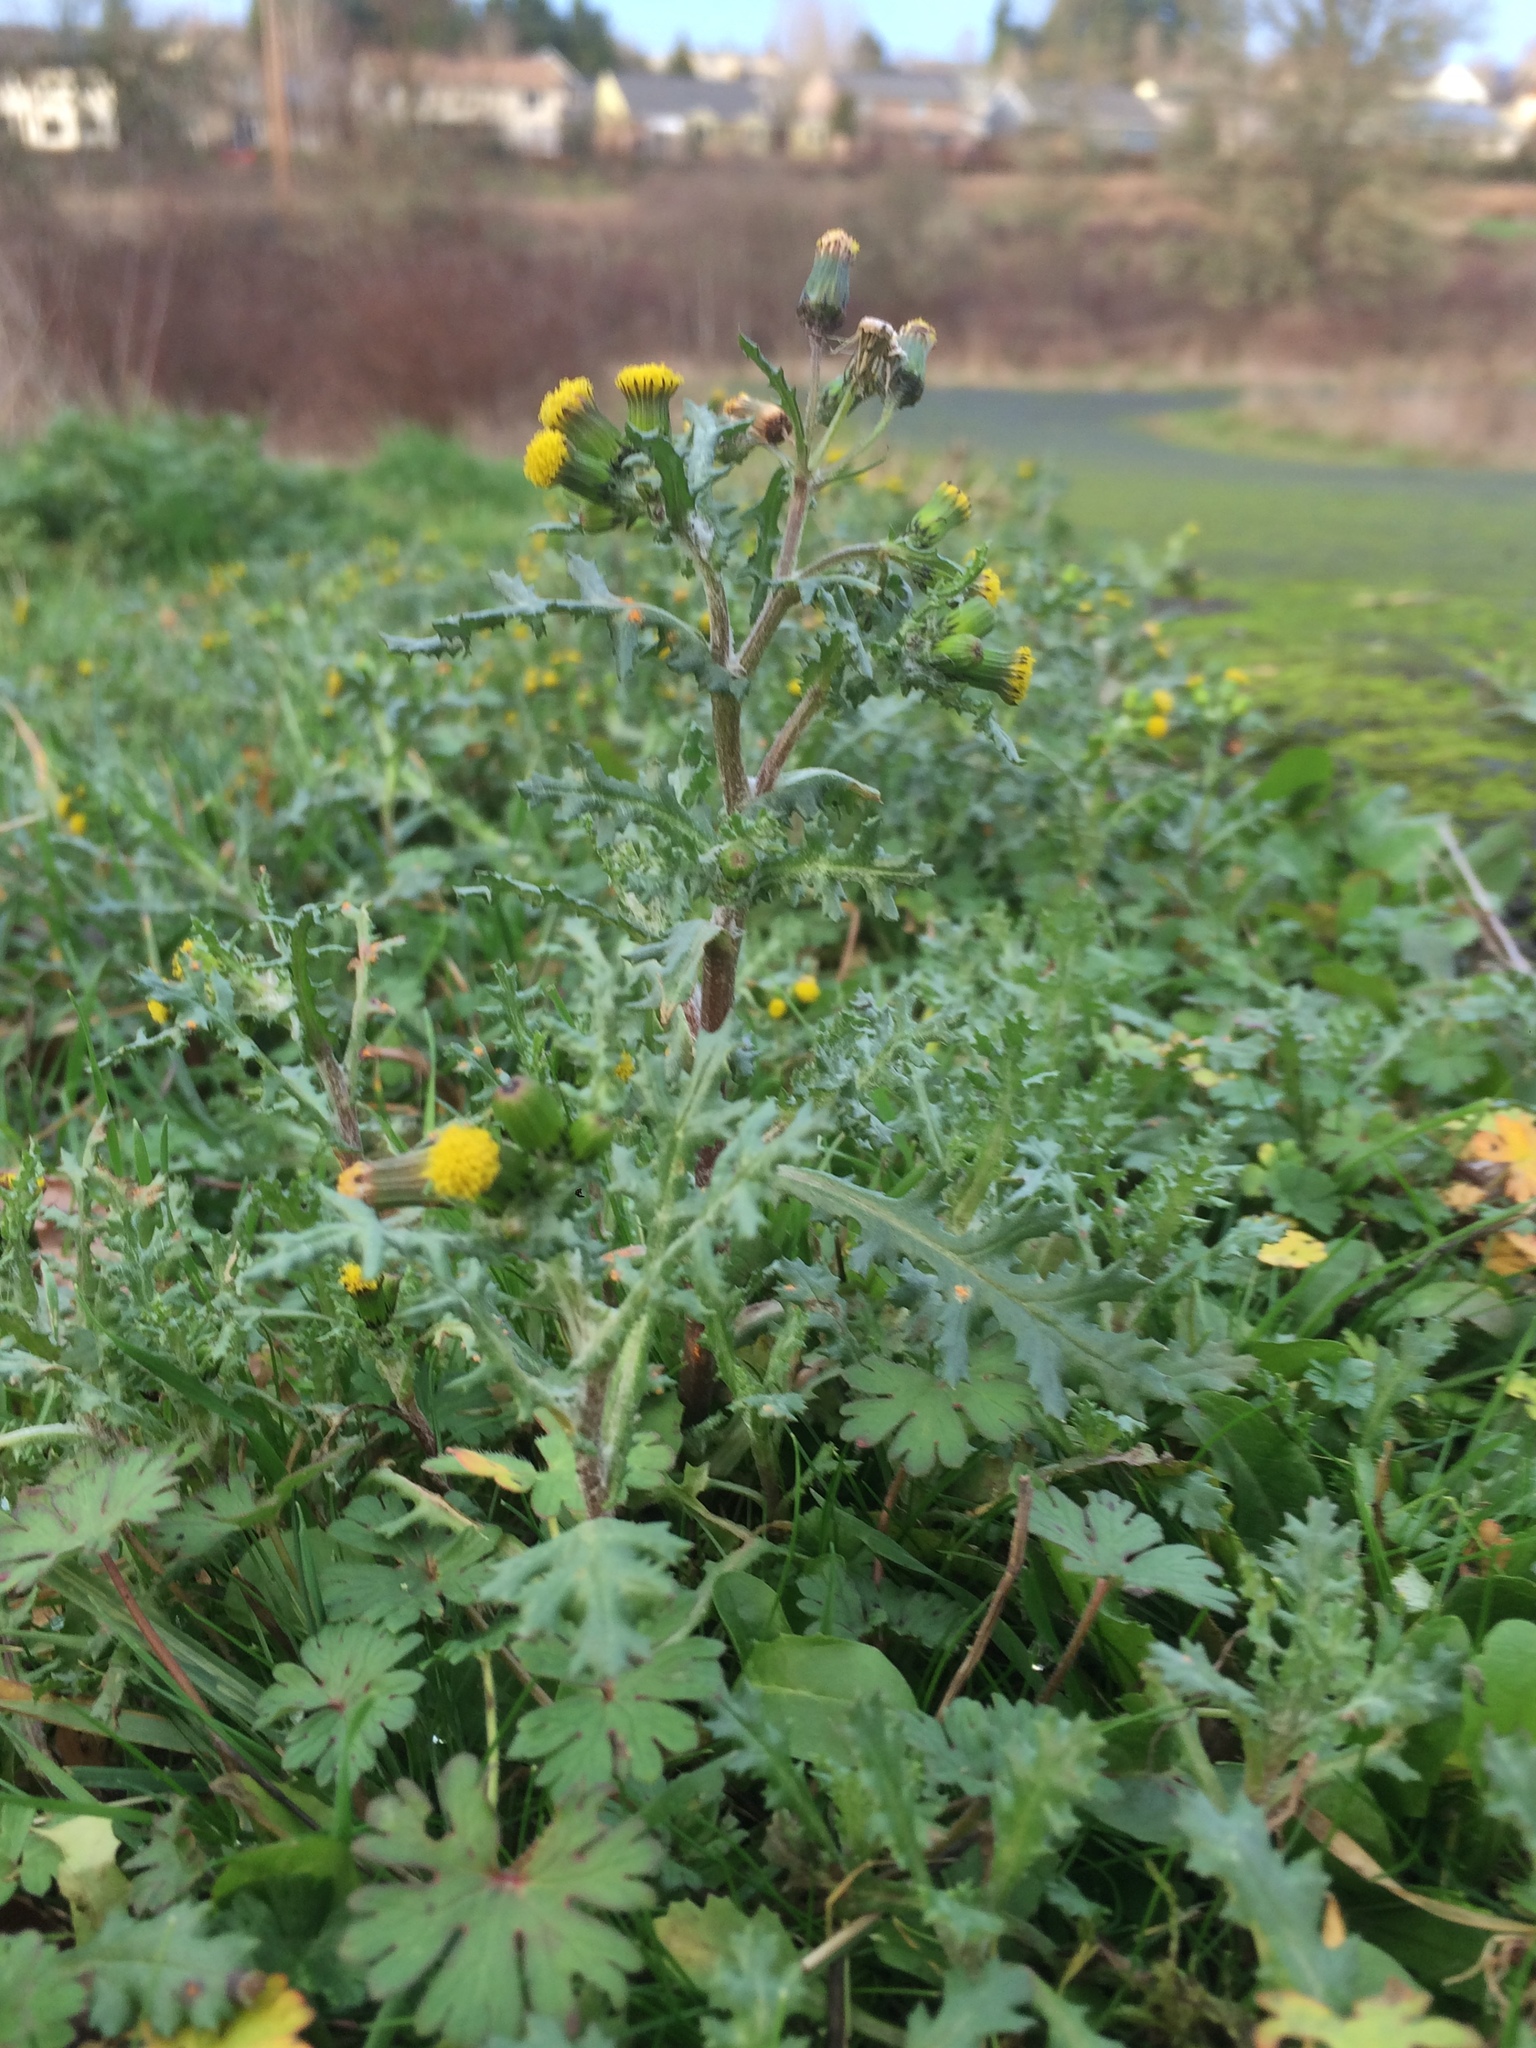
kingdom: Plantae
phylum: Tracheophyta
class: Magnoliopsida
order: Asterales
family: Asteraceae
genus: Senecio
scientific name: Senecio vulgaris
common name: Old-man-in-the-spring
